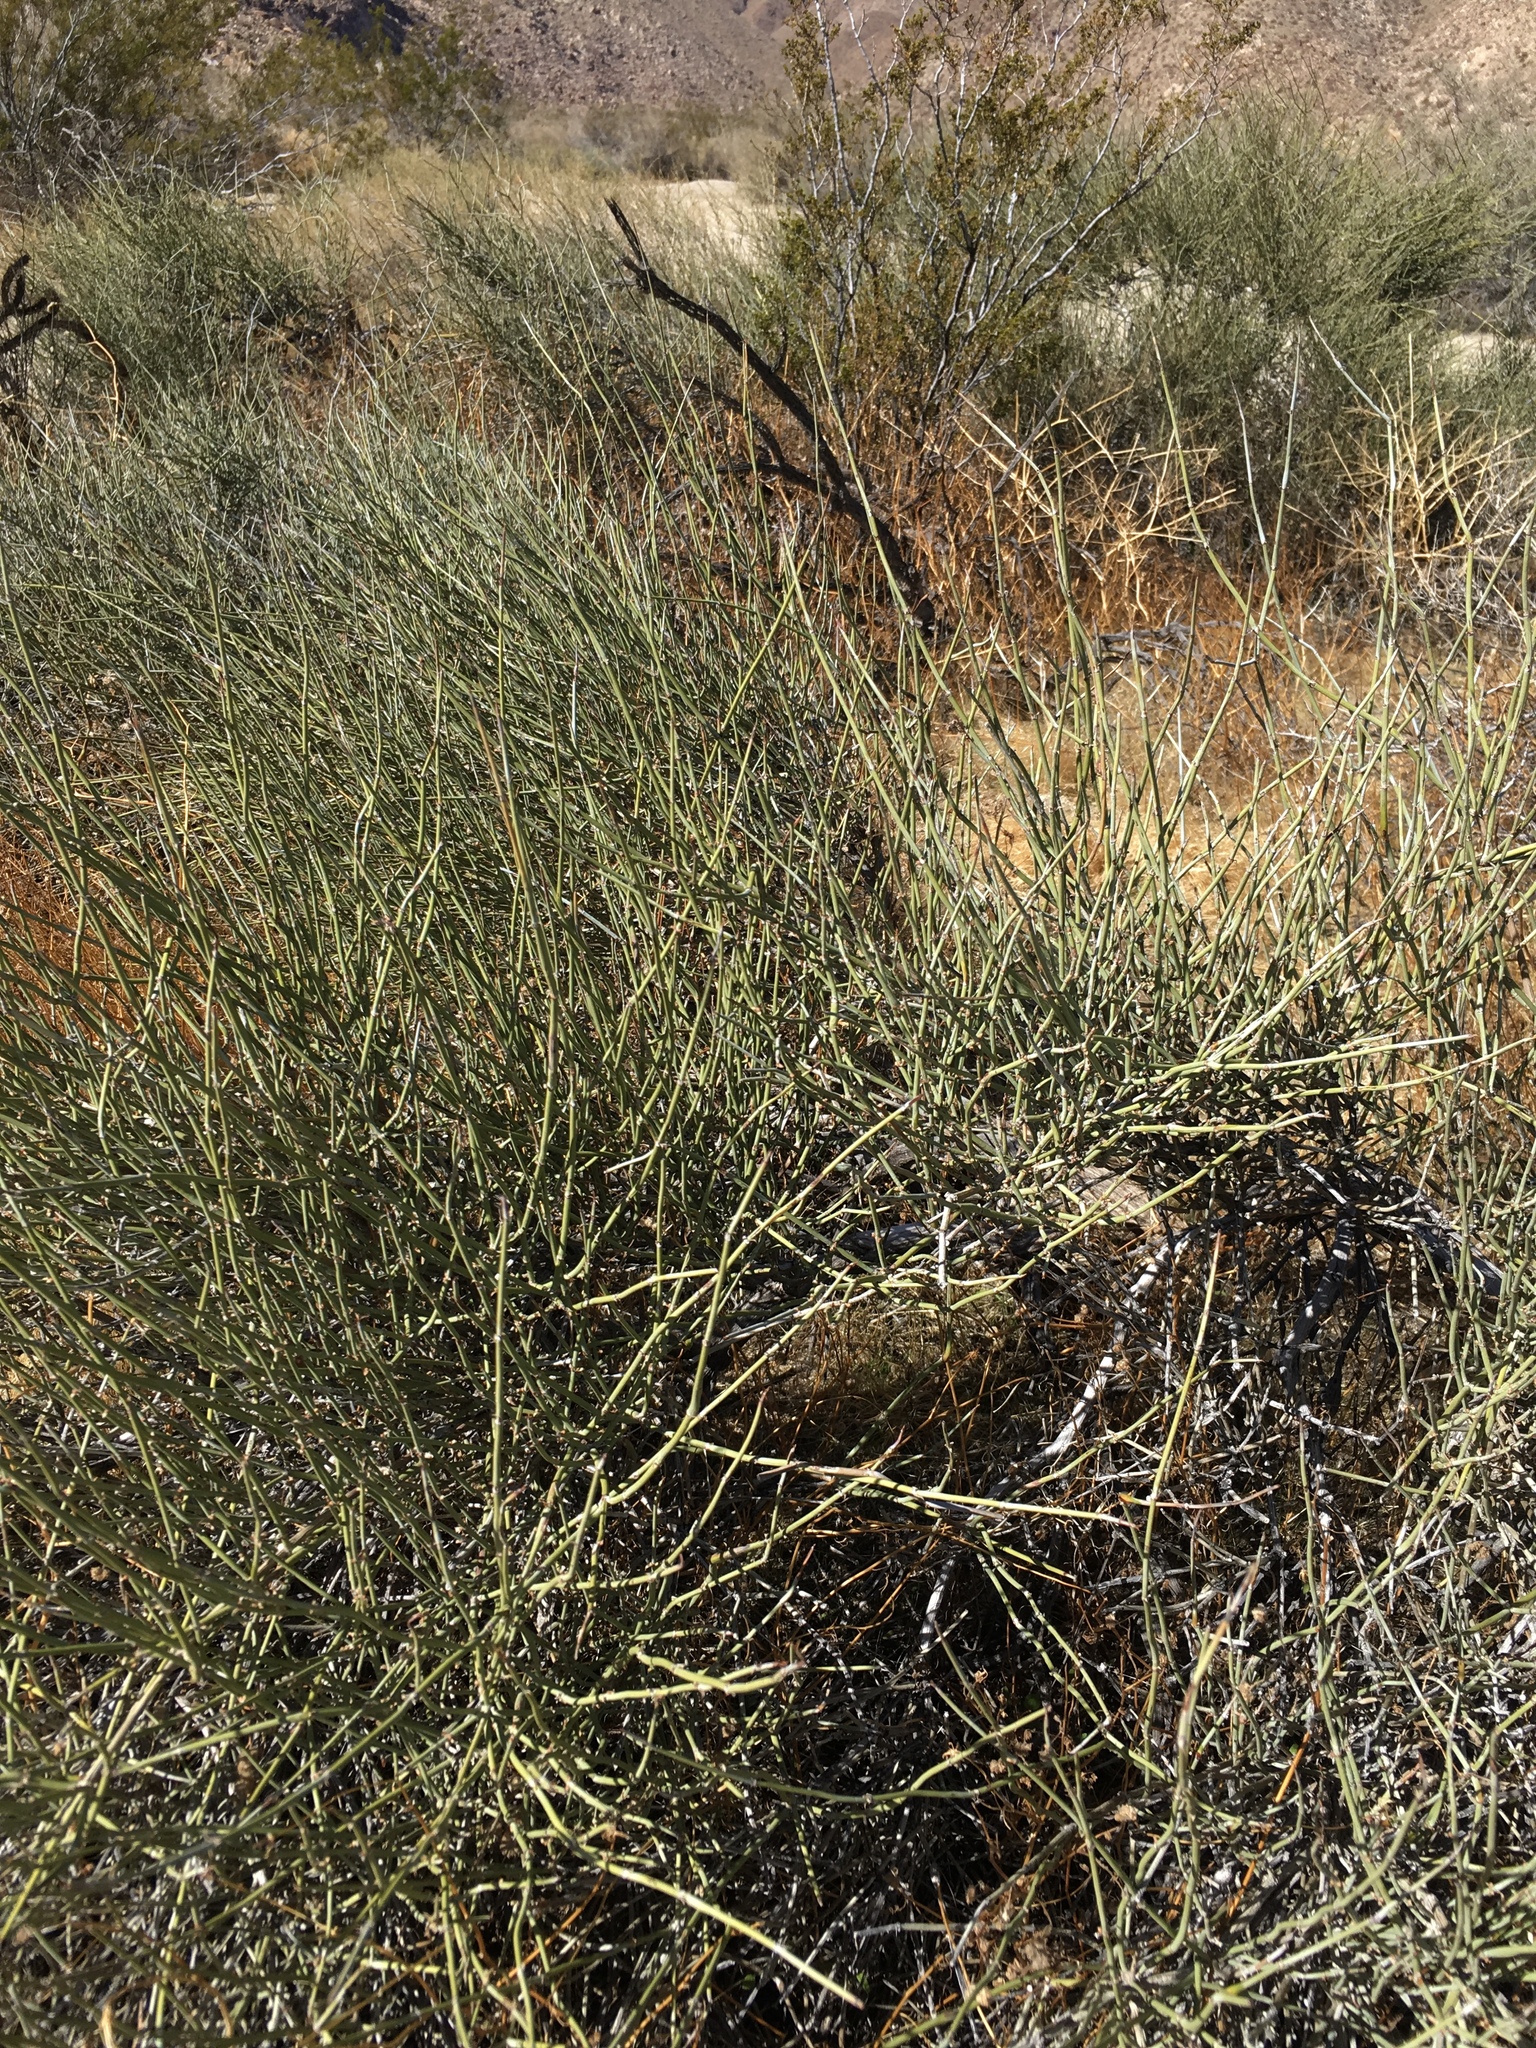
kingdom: Plantae
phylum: Tracheophyta
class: Gnetopsida
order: Ephedrales
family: Ephedraceae
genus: Ephedra
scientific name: Ephedra californica
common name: California ephedra
